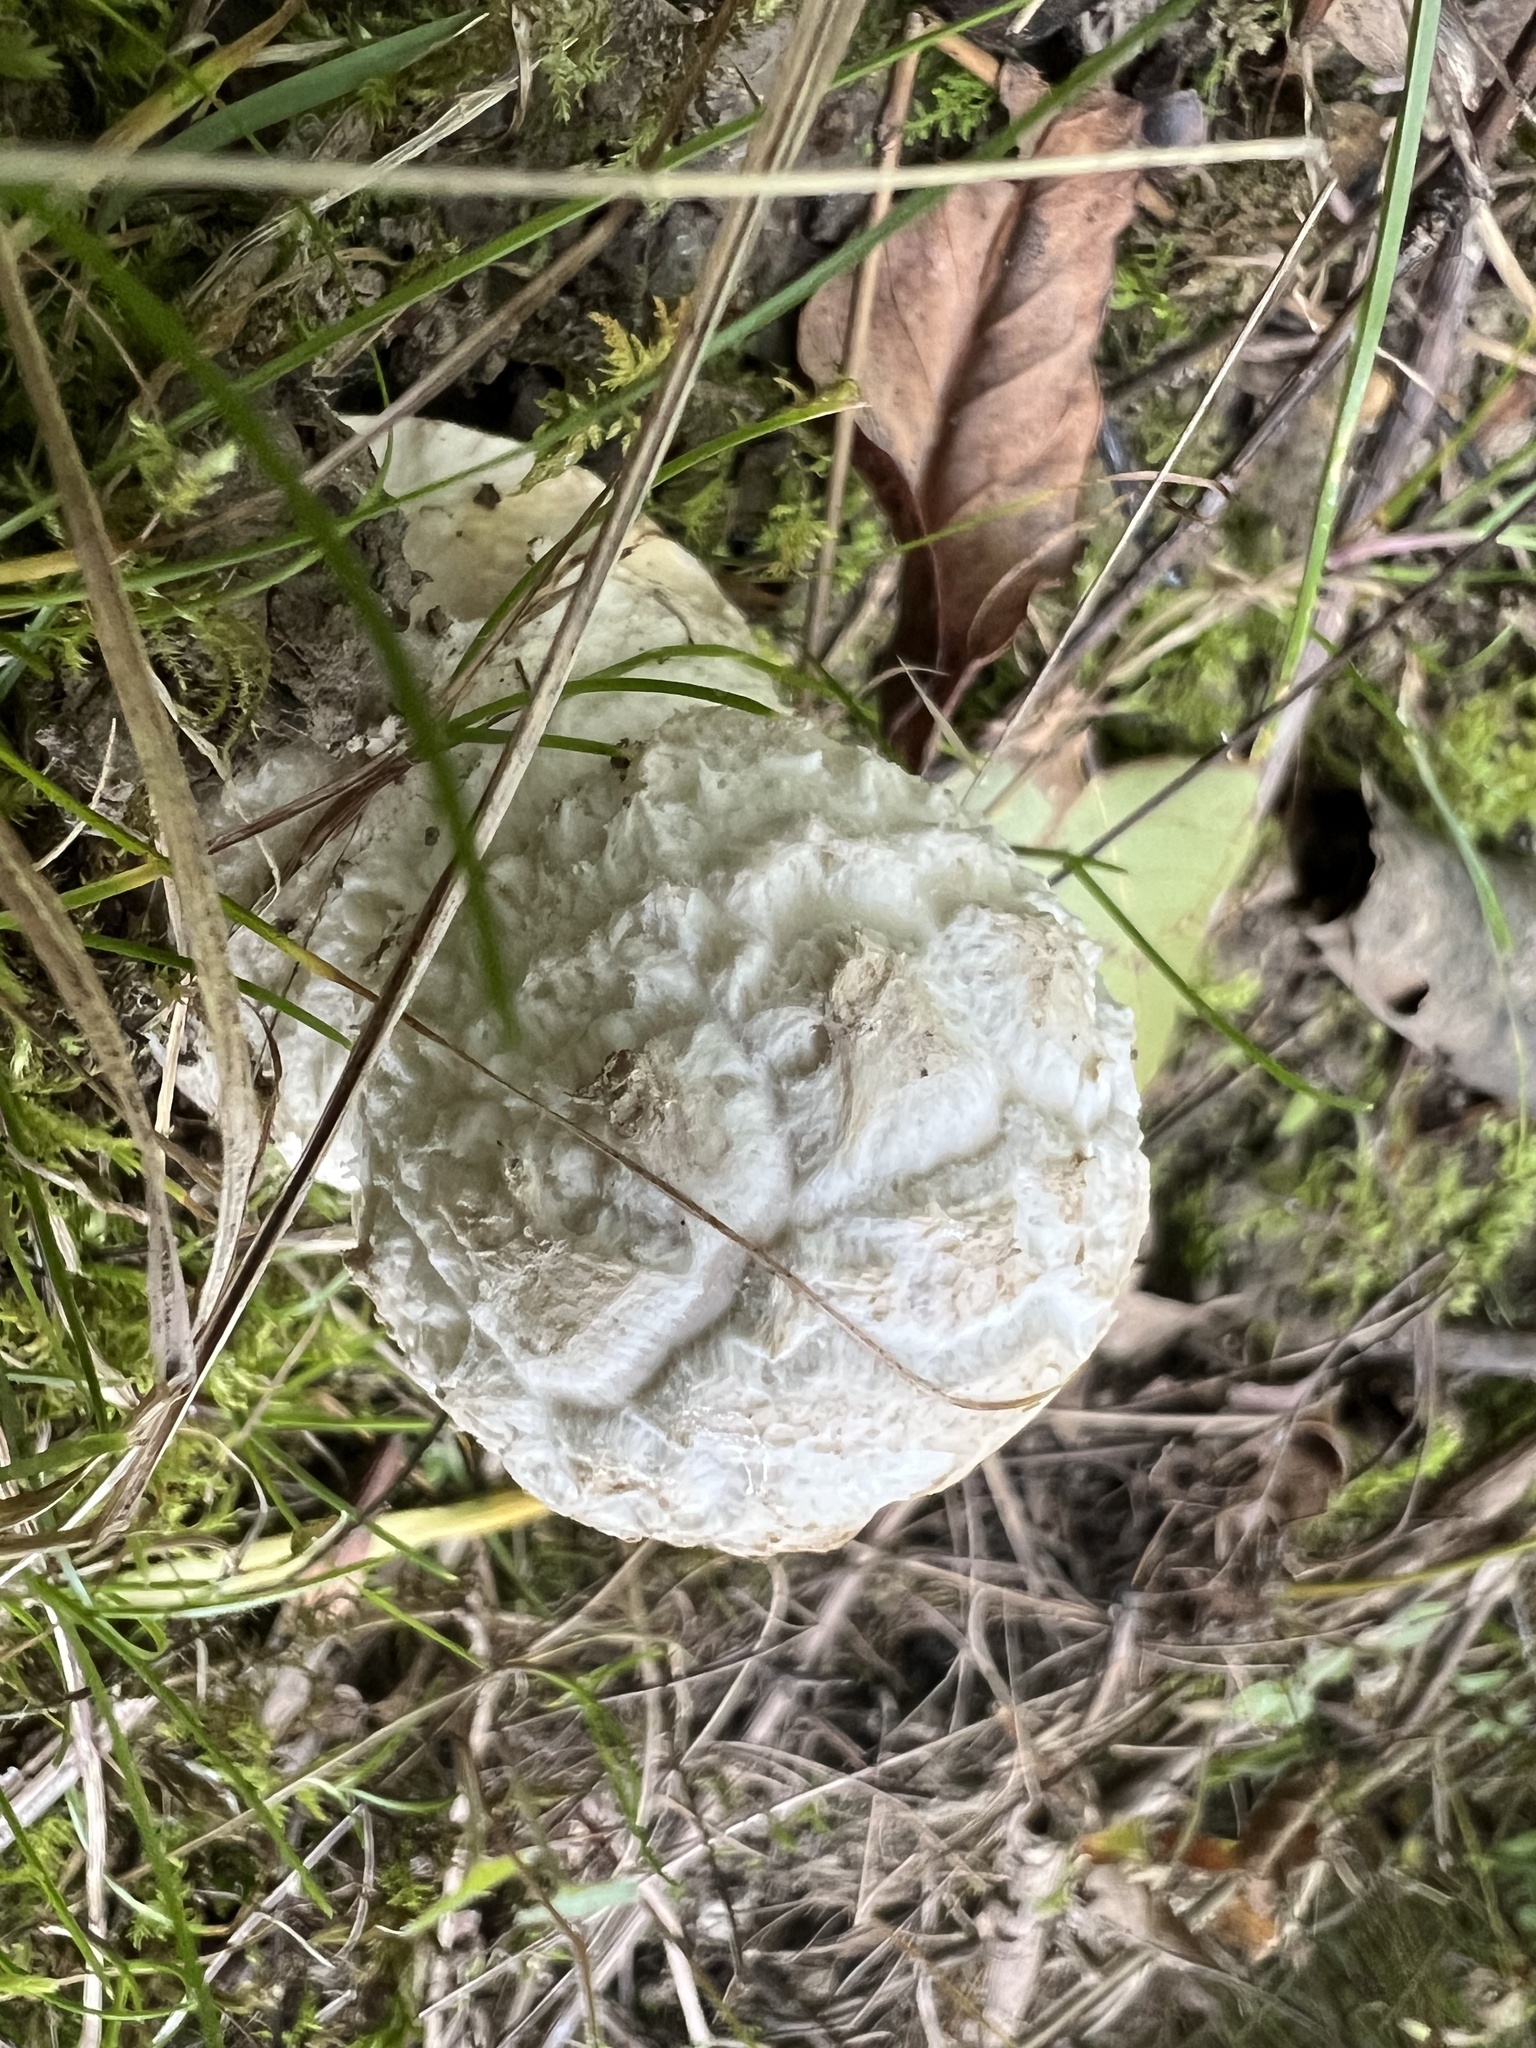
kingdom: Fungi
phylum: Ascomycota
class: Sordariomycetes
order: Hypocreales
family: Hypocreaceae
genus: Hypomyces
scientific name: Hypomyces hyalinus
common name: Amanita mold
